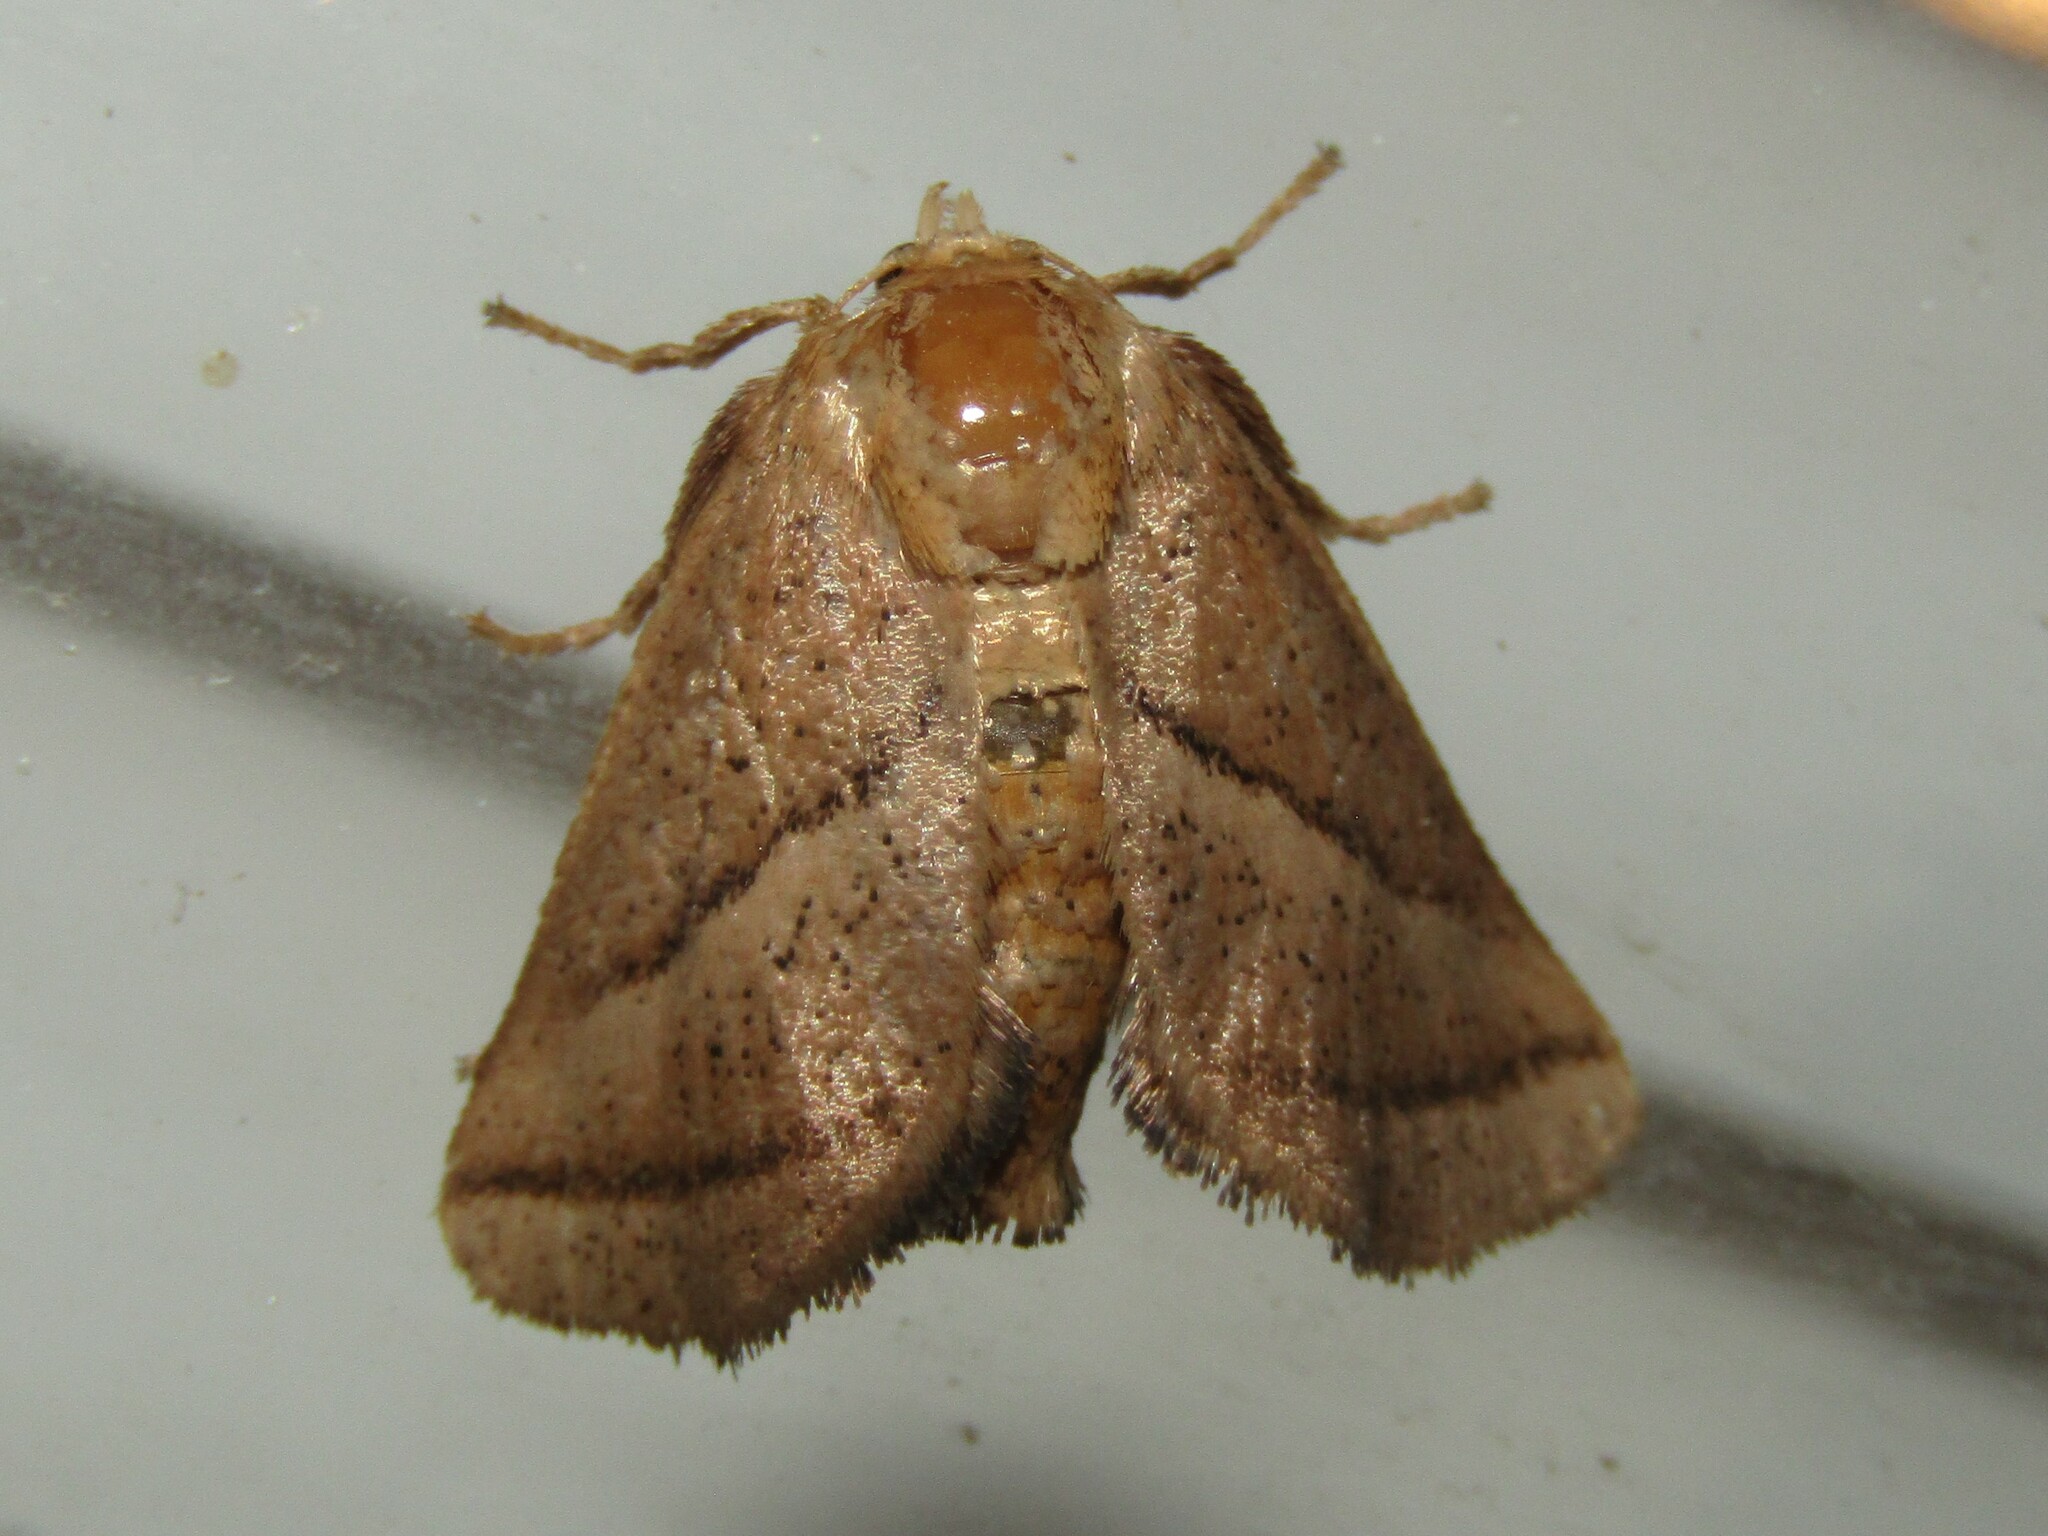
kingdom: Animalia
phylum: Arthropoda
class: Insecta
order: Lepidoptera
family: Limacodidae
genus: Natada
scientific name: Natada nasoni
